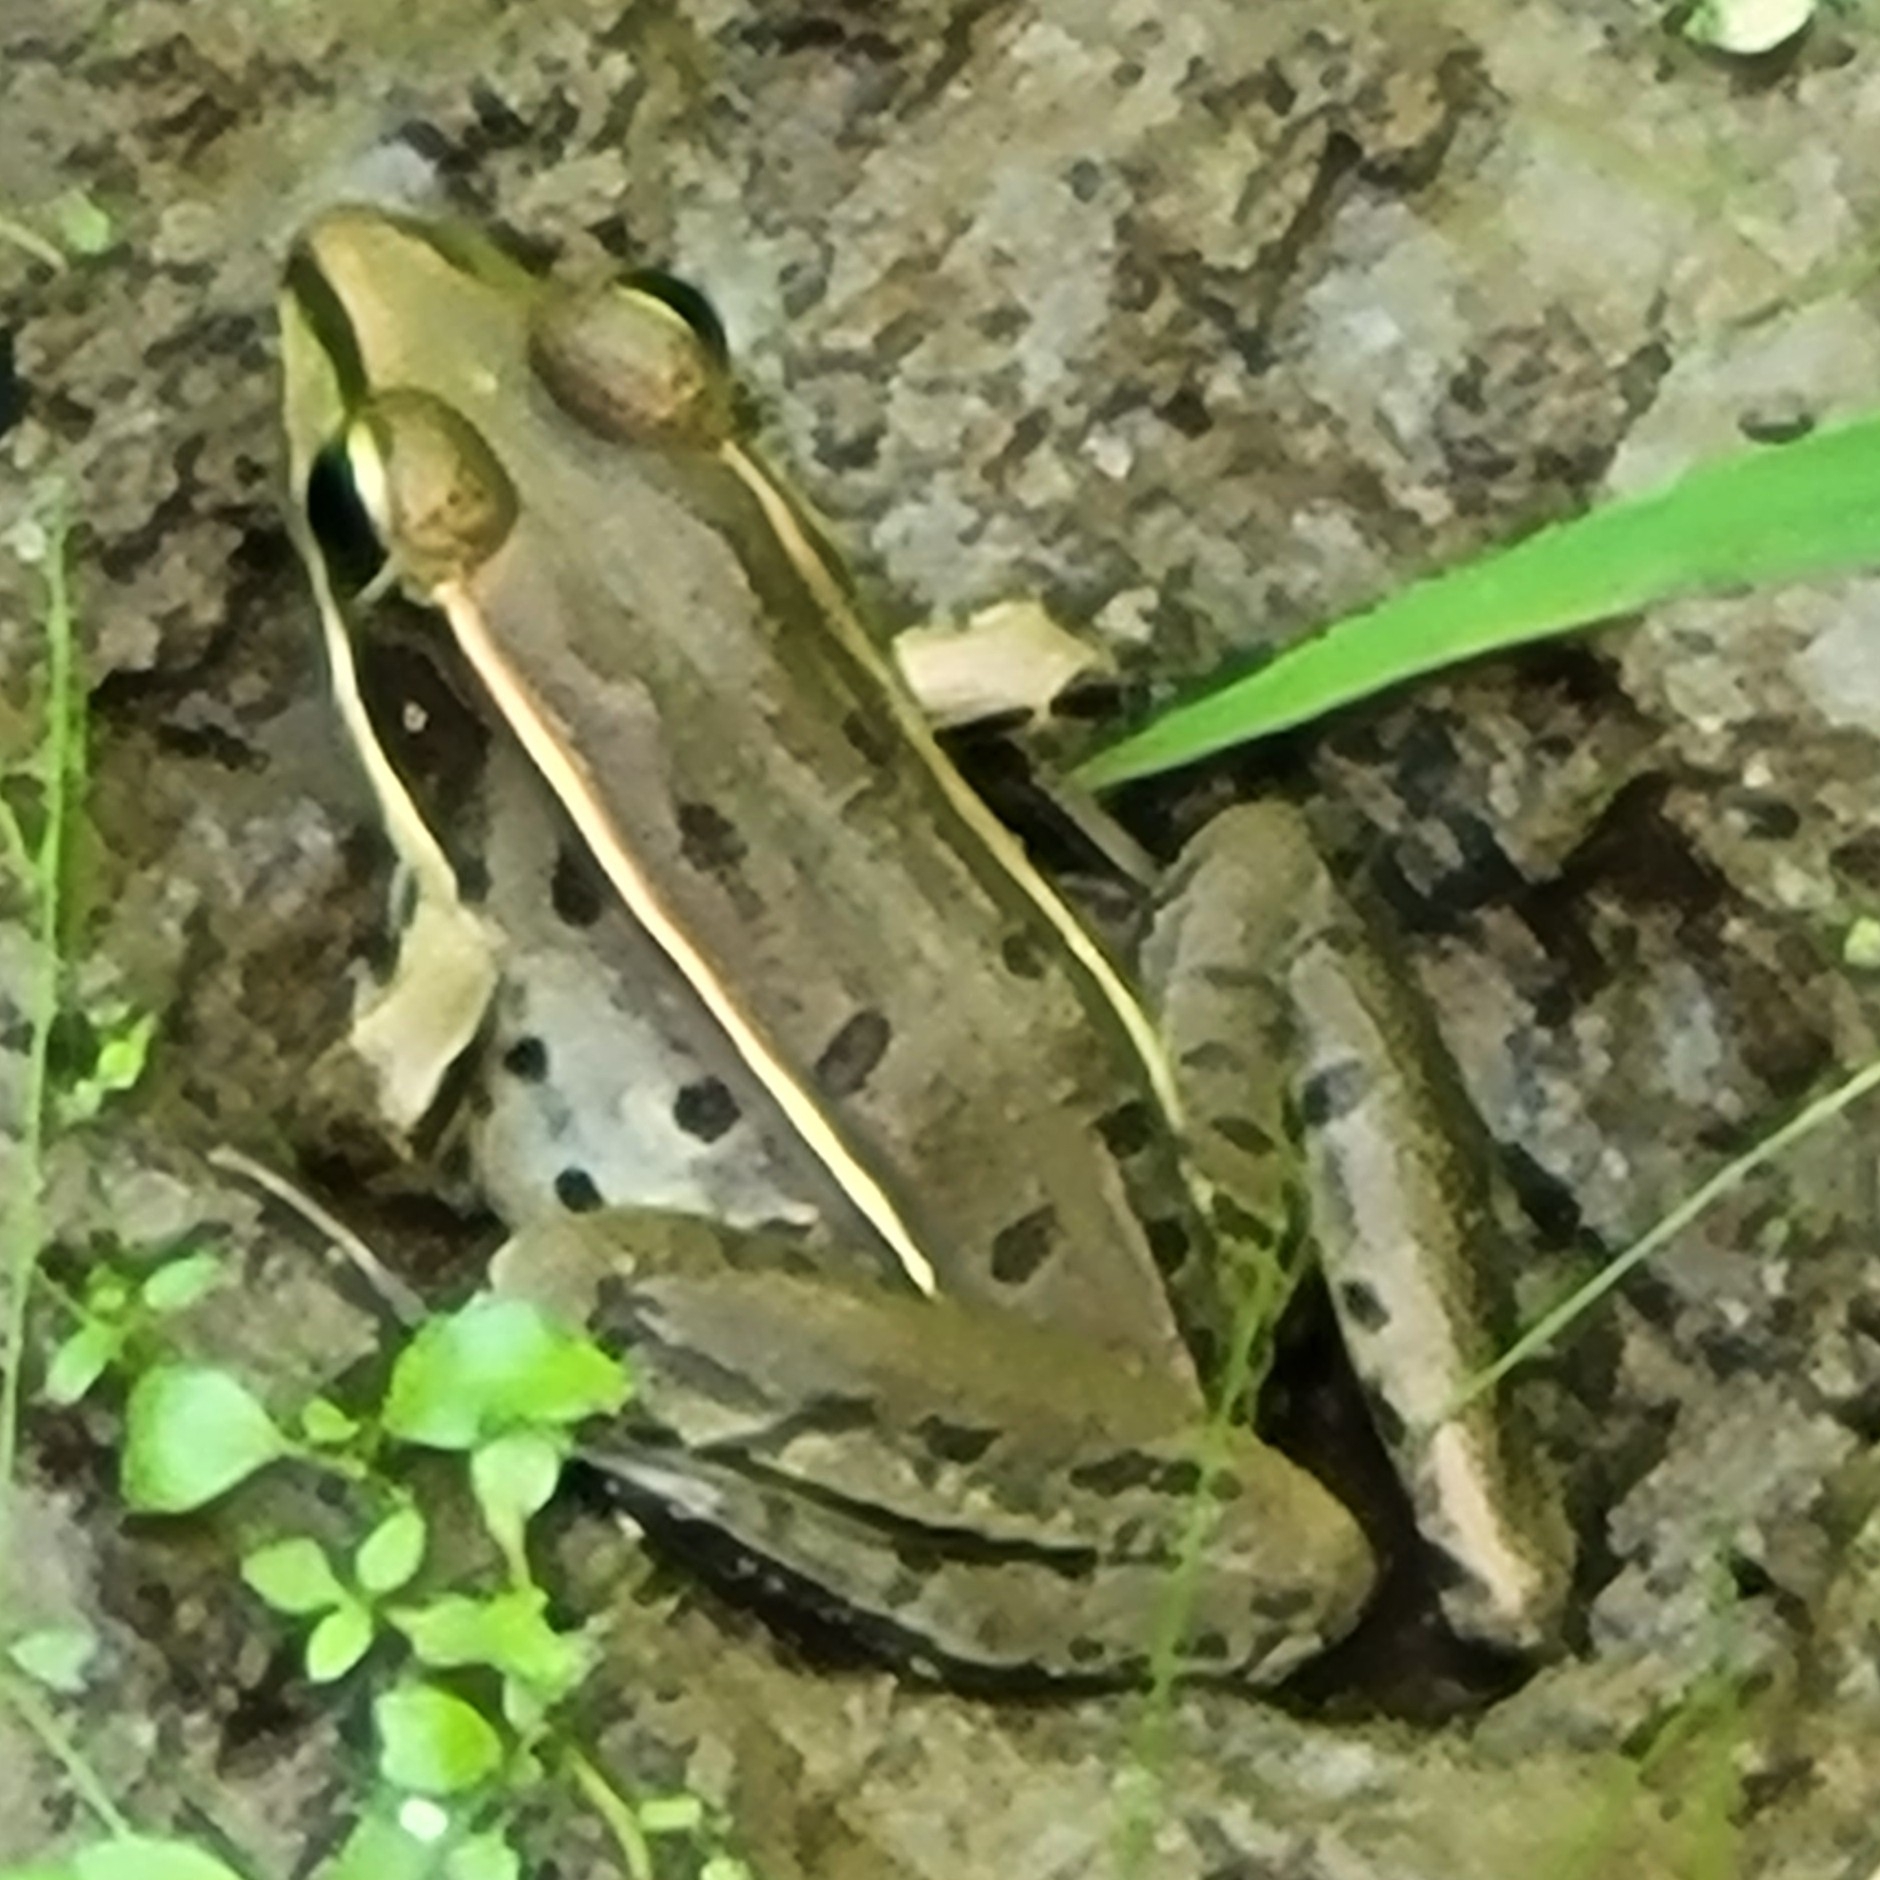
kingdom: Animalia
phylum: Chordata
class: Amphibia
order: Anura
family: Ranidae
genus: Lithobates
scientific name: Lithobates sphenocephalus
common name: Southern leopard frog
